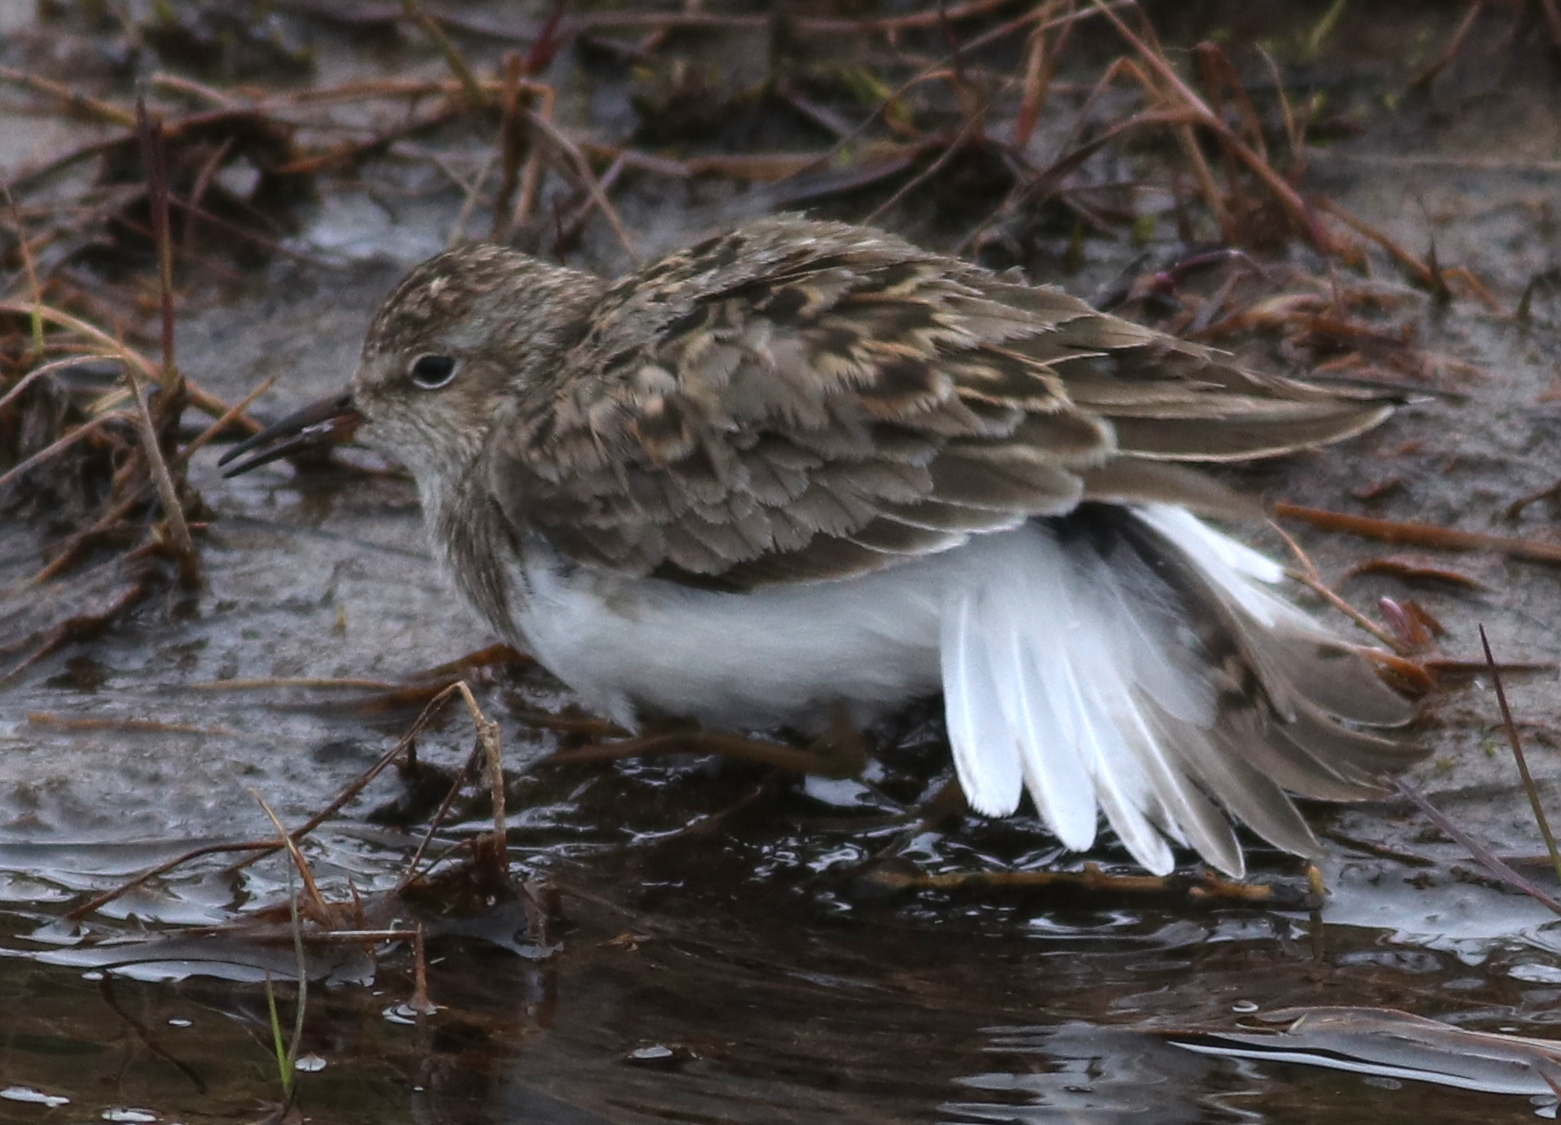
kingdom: Animalia
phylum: Chordata
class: Aves
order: Charadriiformes
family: Scolopacidae
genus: Calidris
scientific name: Calidris temminckii
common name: Temminck's stint
